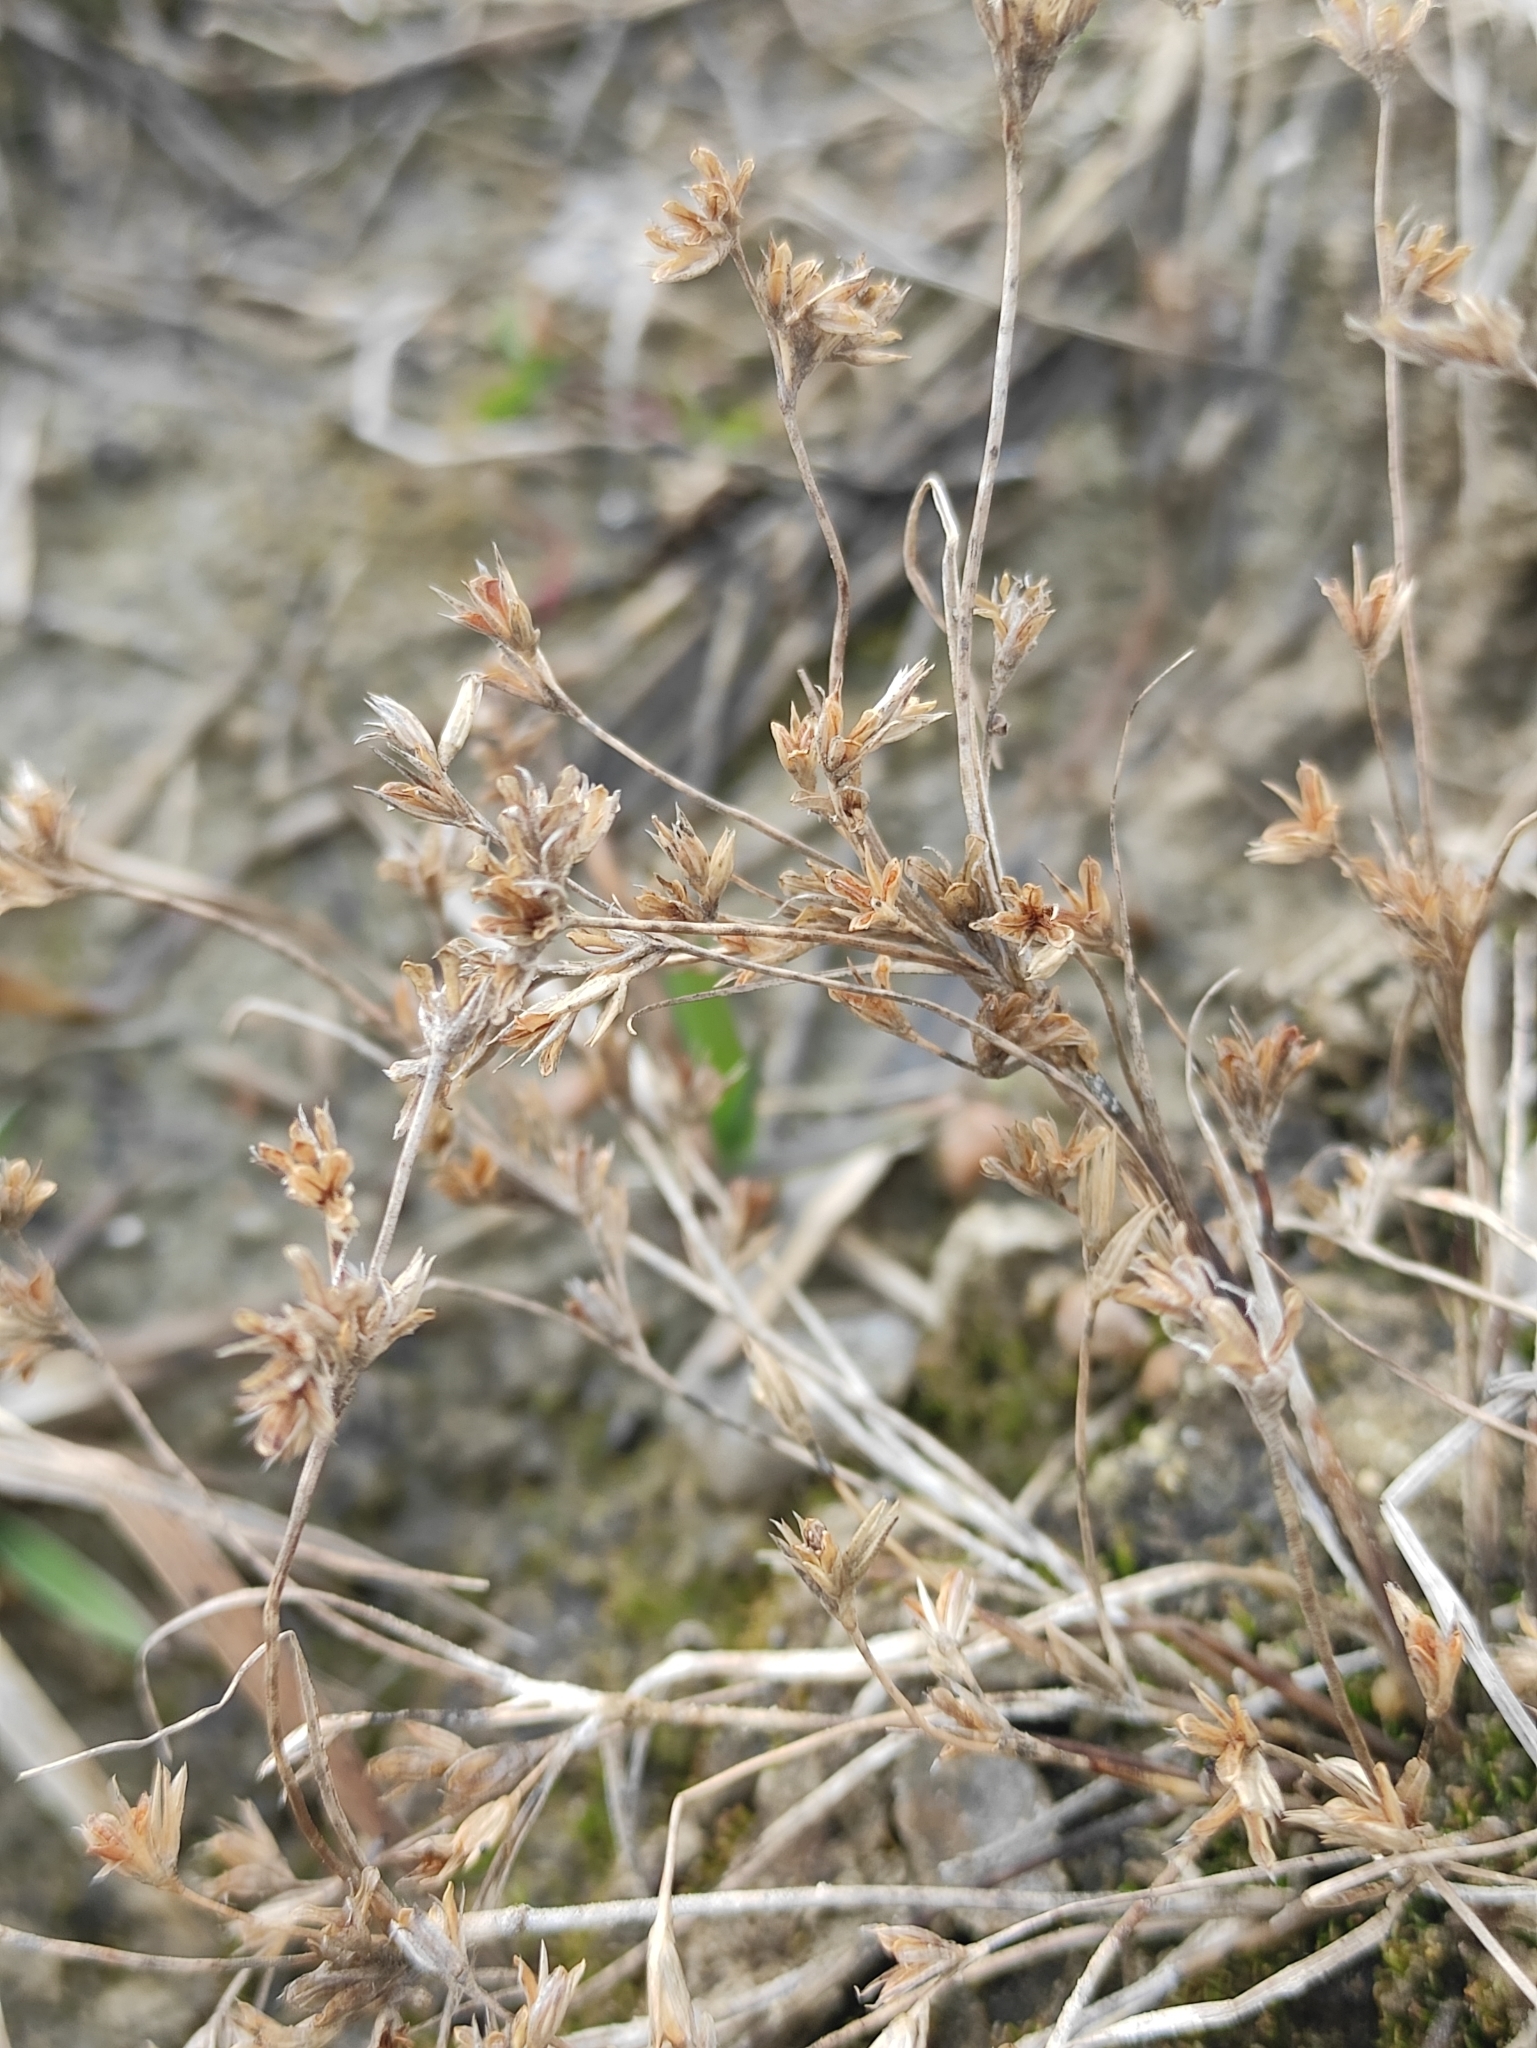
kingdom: Plantae
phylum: Tracheophyta
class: Liliopsida
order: Poales
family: Juncaceae
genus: Juncus
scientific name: Juncus bufonius
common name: Toad rush
